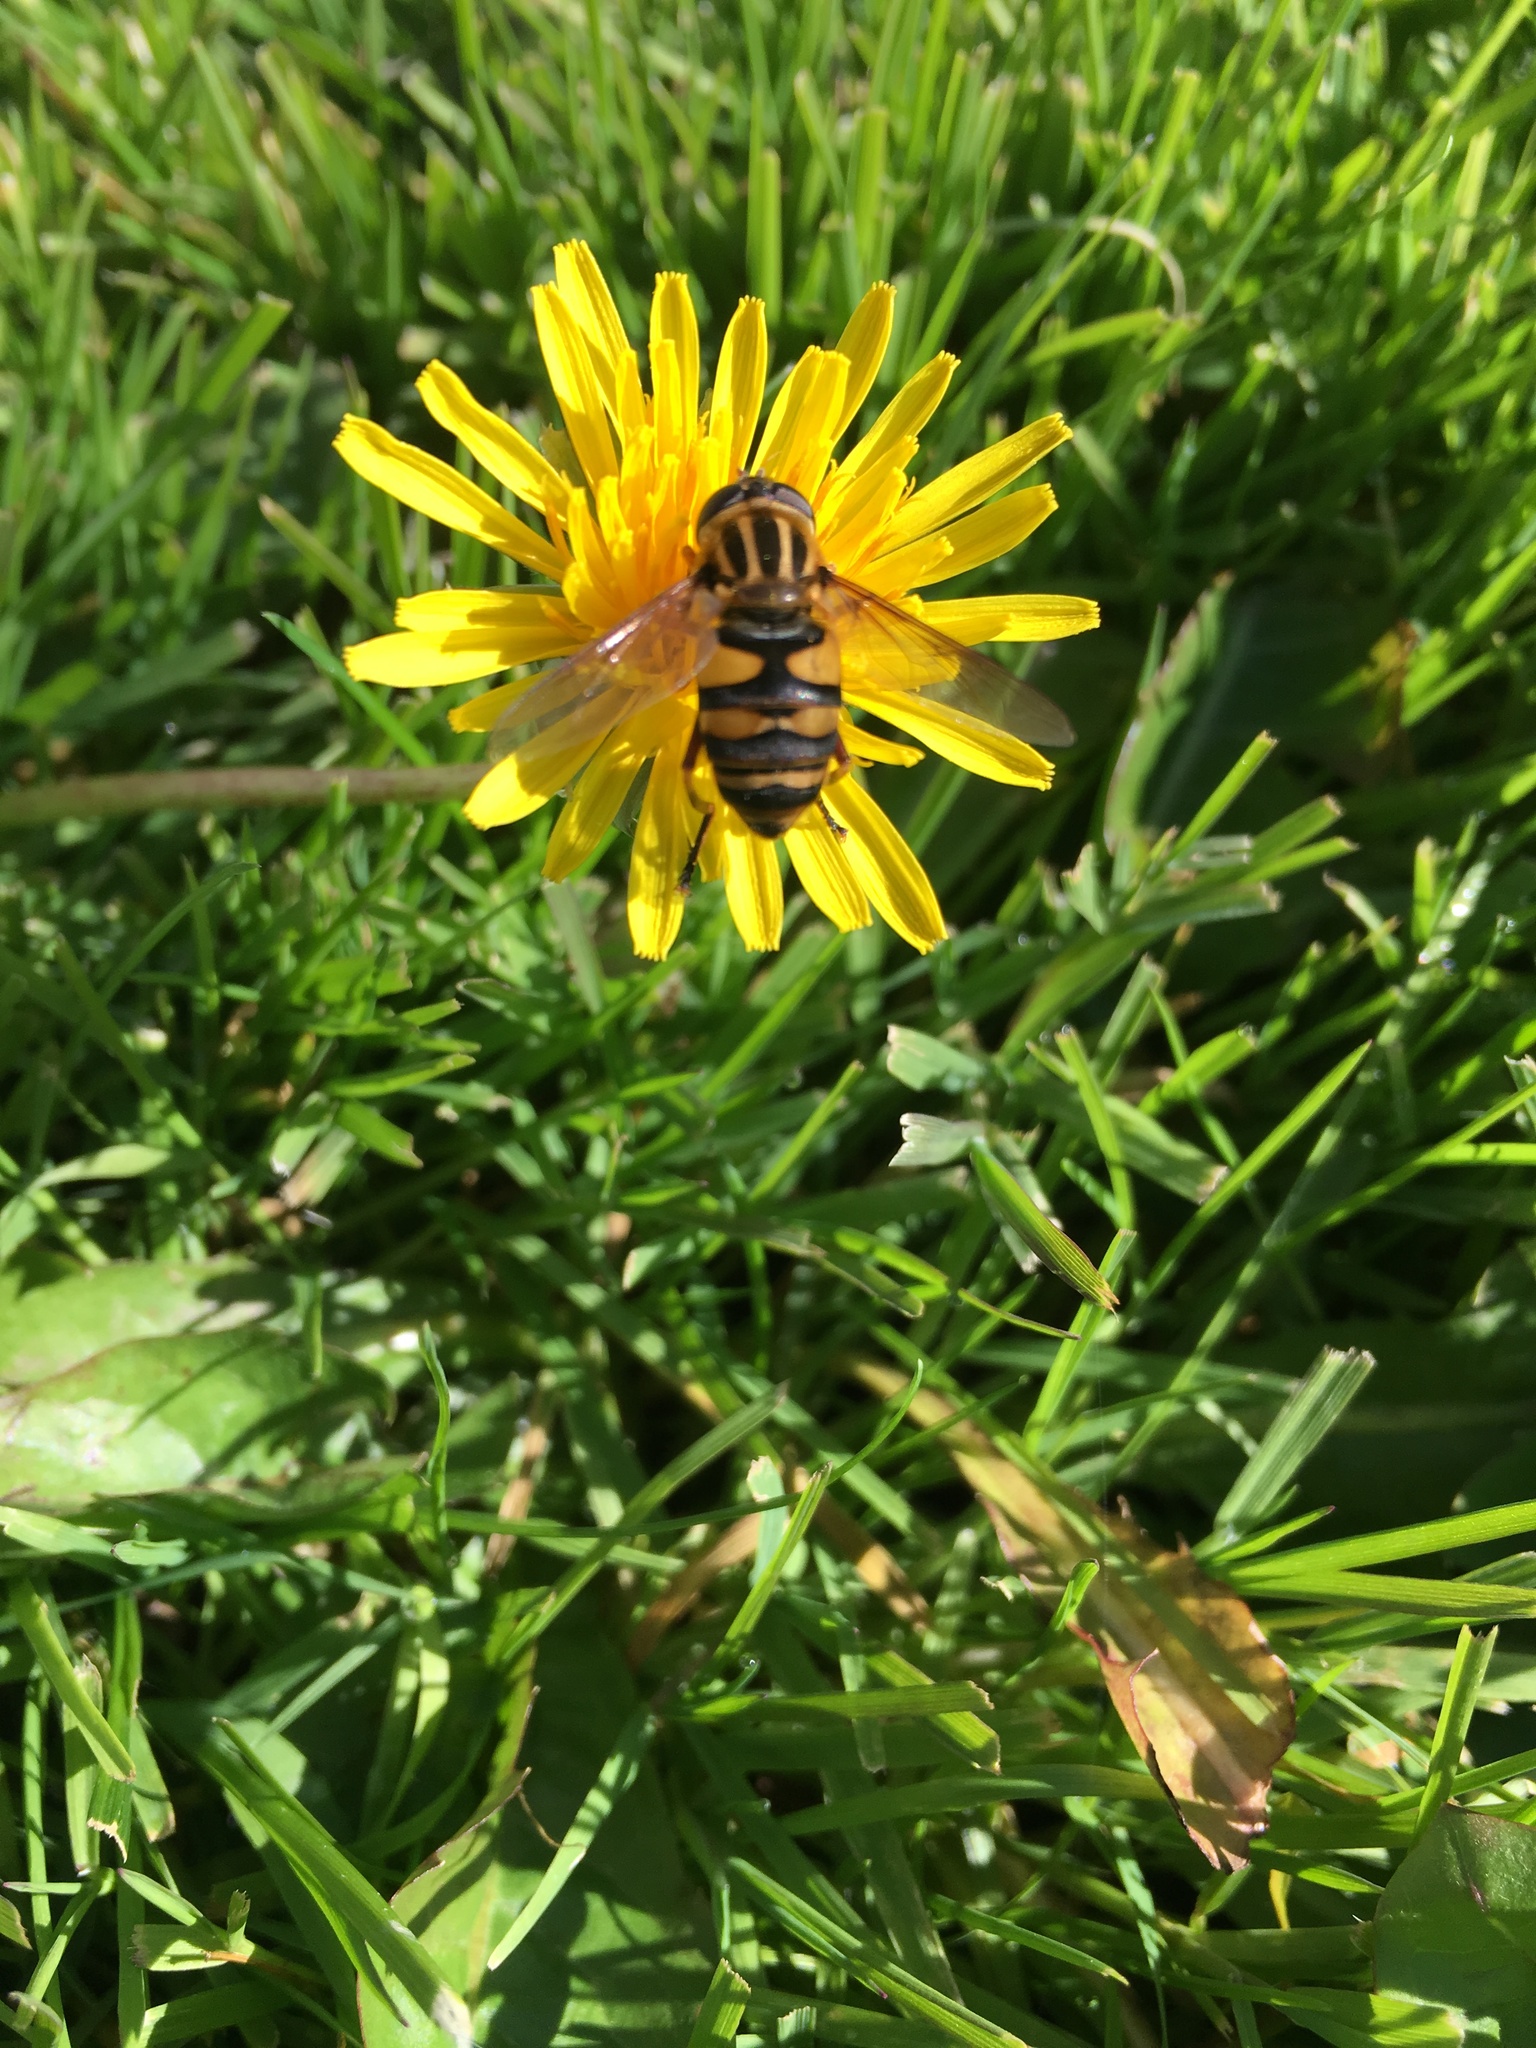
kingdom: Animalia
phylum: Arthropoda
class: Insecta
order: Diptera
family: Syrphidae
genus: Helophilus
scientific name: Helophilus fasciatus
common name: Narrow-headed marsh fly
